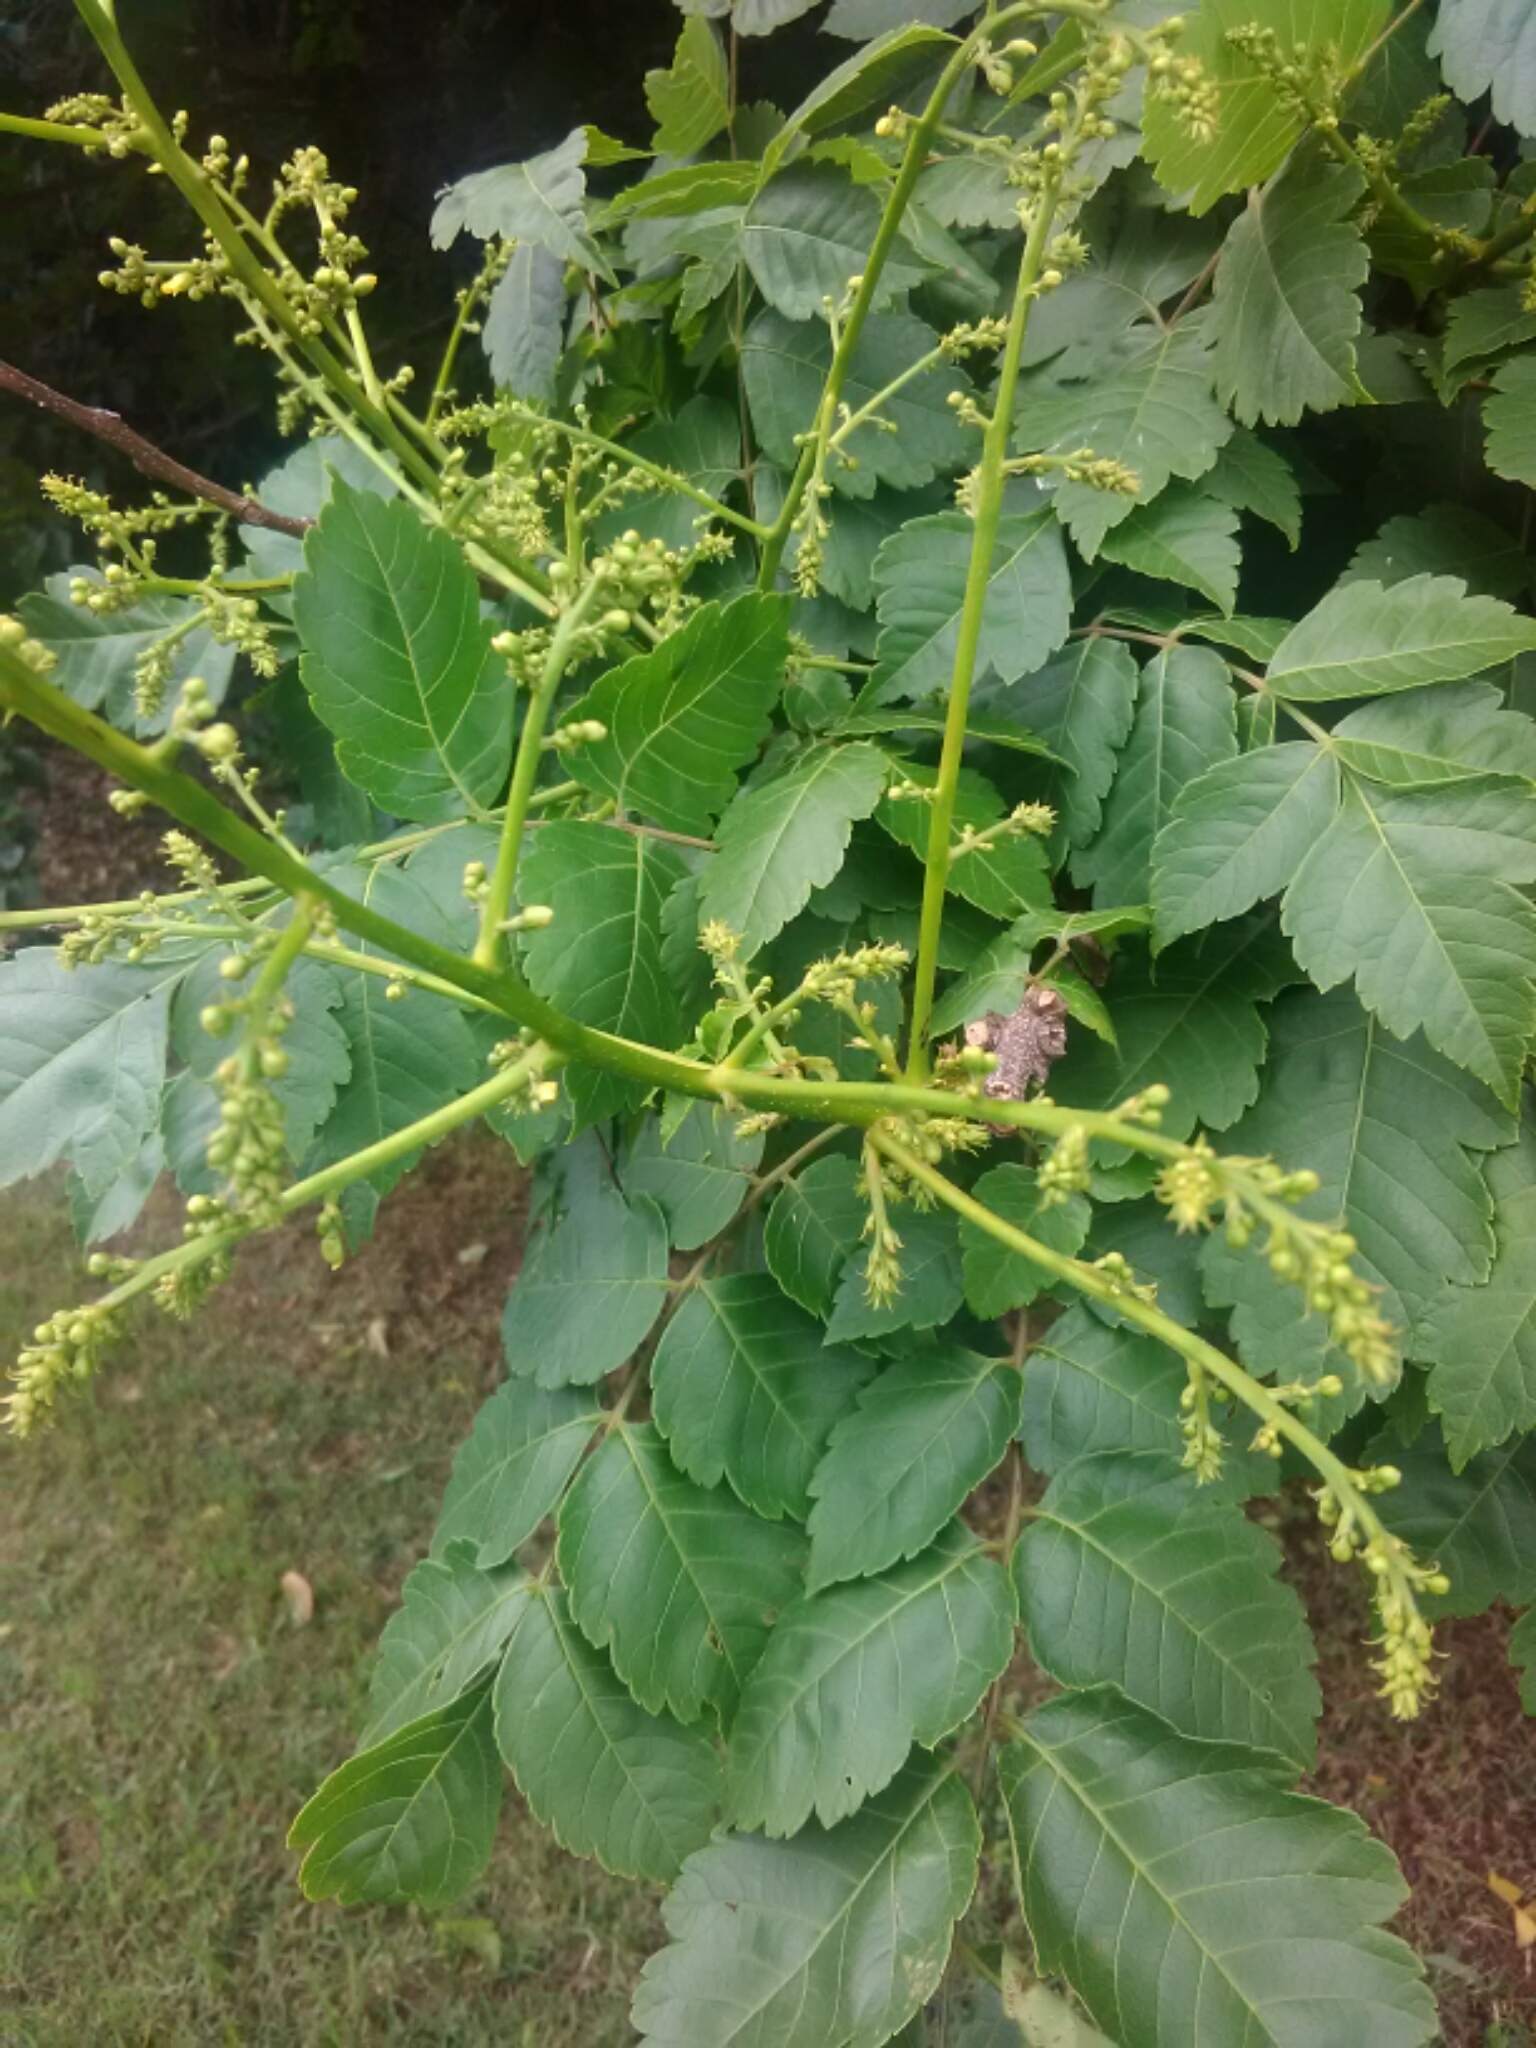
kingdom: Plantae
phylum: Tracheophyta
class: Magnoliopsida
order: Sapindales
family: Sapindaceae
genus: Koelreuteria
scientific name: Koelreuteria paniculata
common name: Pride-of-india
